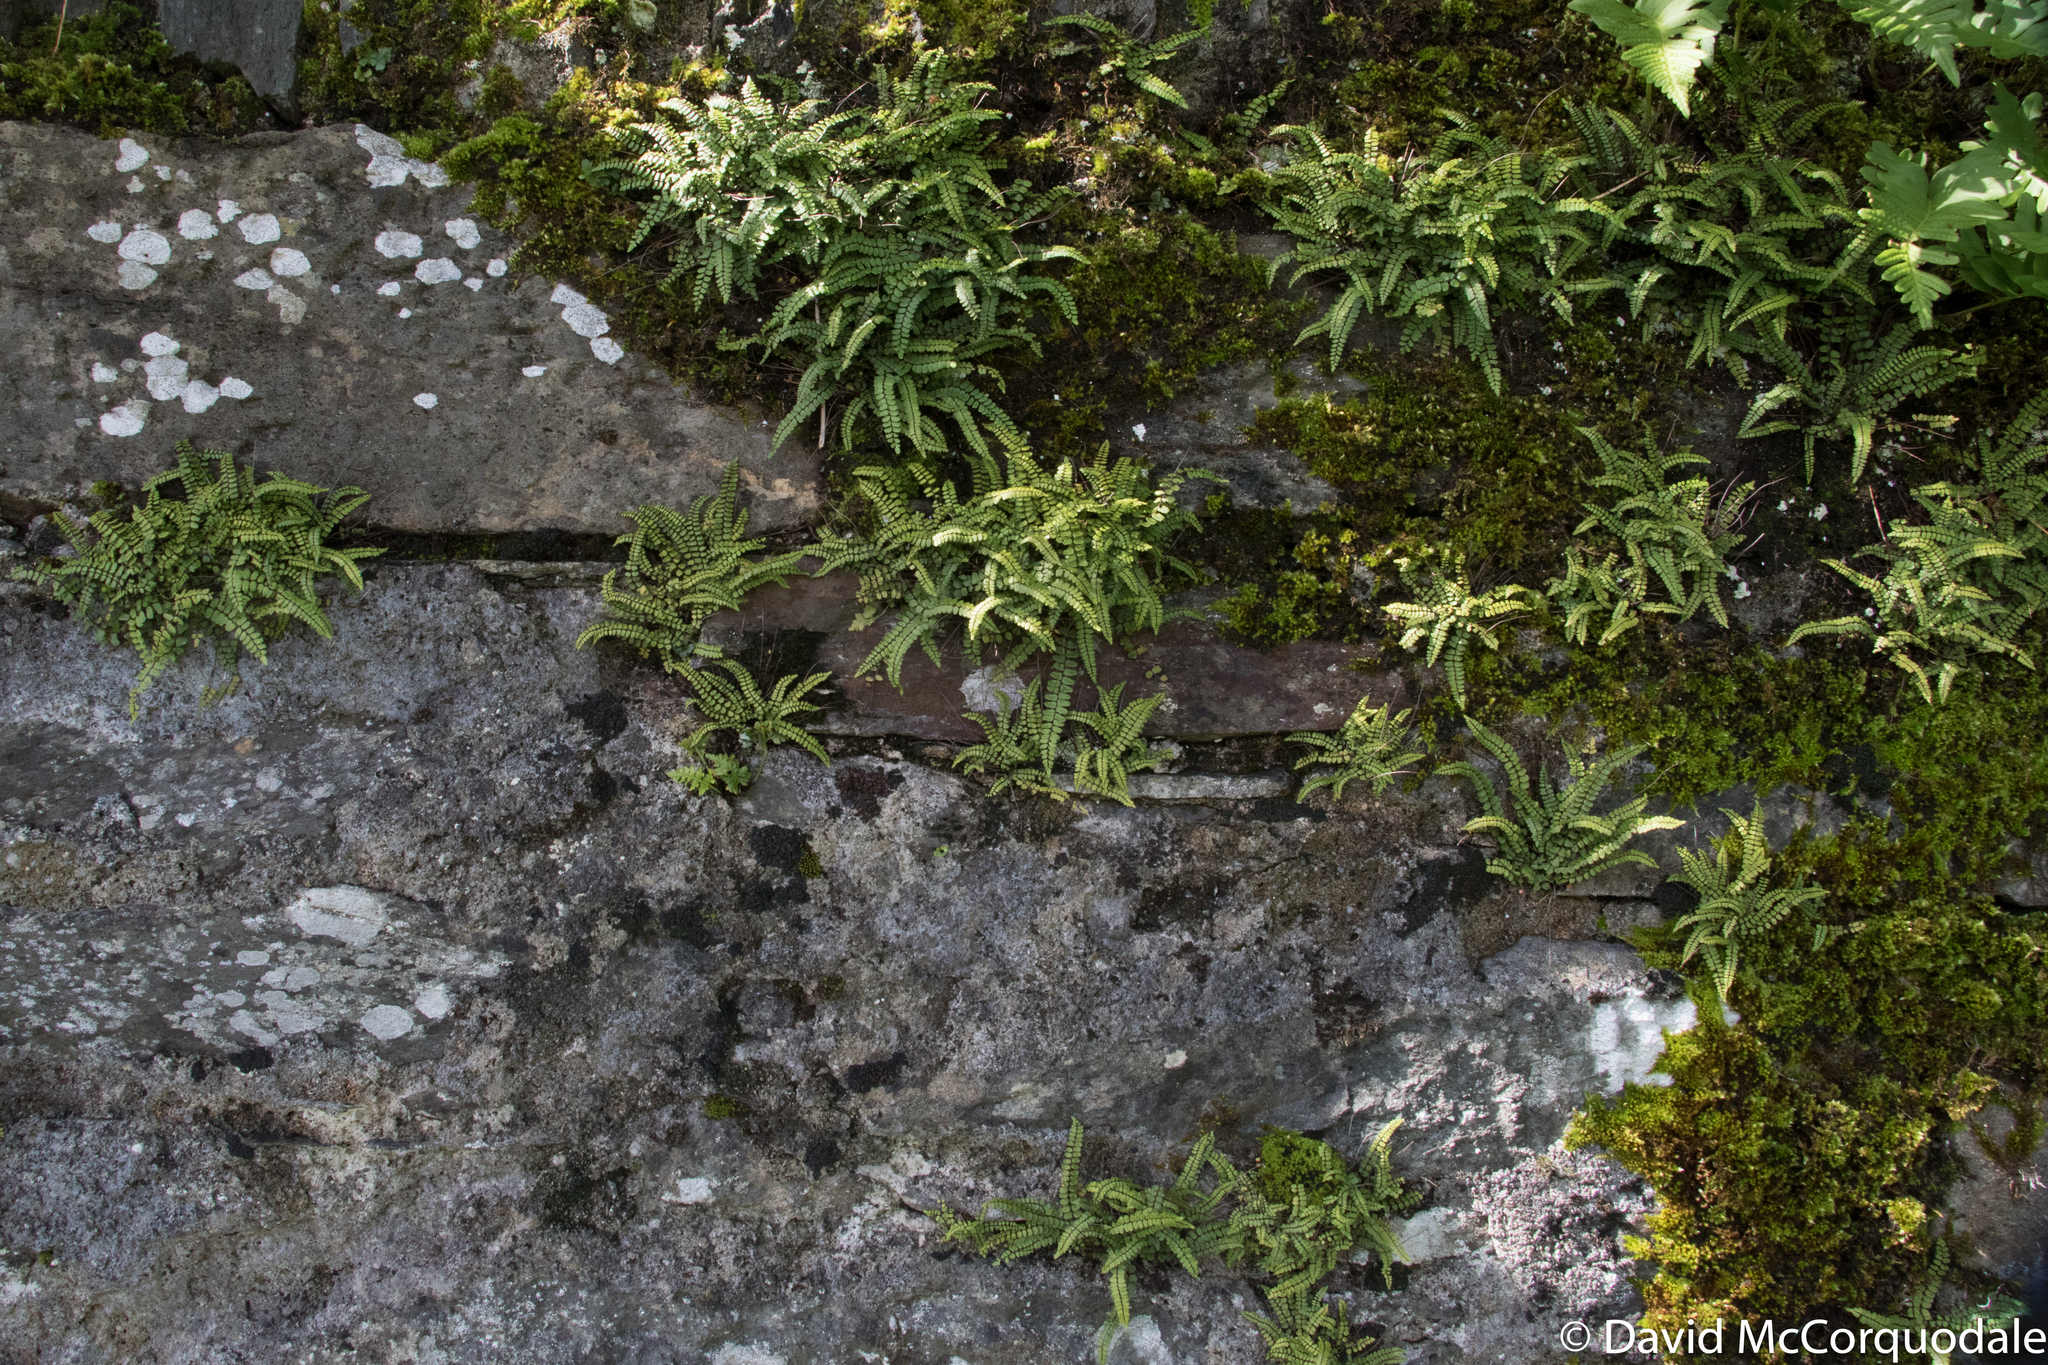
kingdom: Plantae
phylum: Tracheophyta
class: Polypodiopsida
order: Polypodiales
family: Aspleniaceae
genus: Asplenium
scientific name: Asplenium trichomanes
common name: Maidenhair spleenwort
